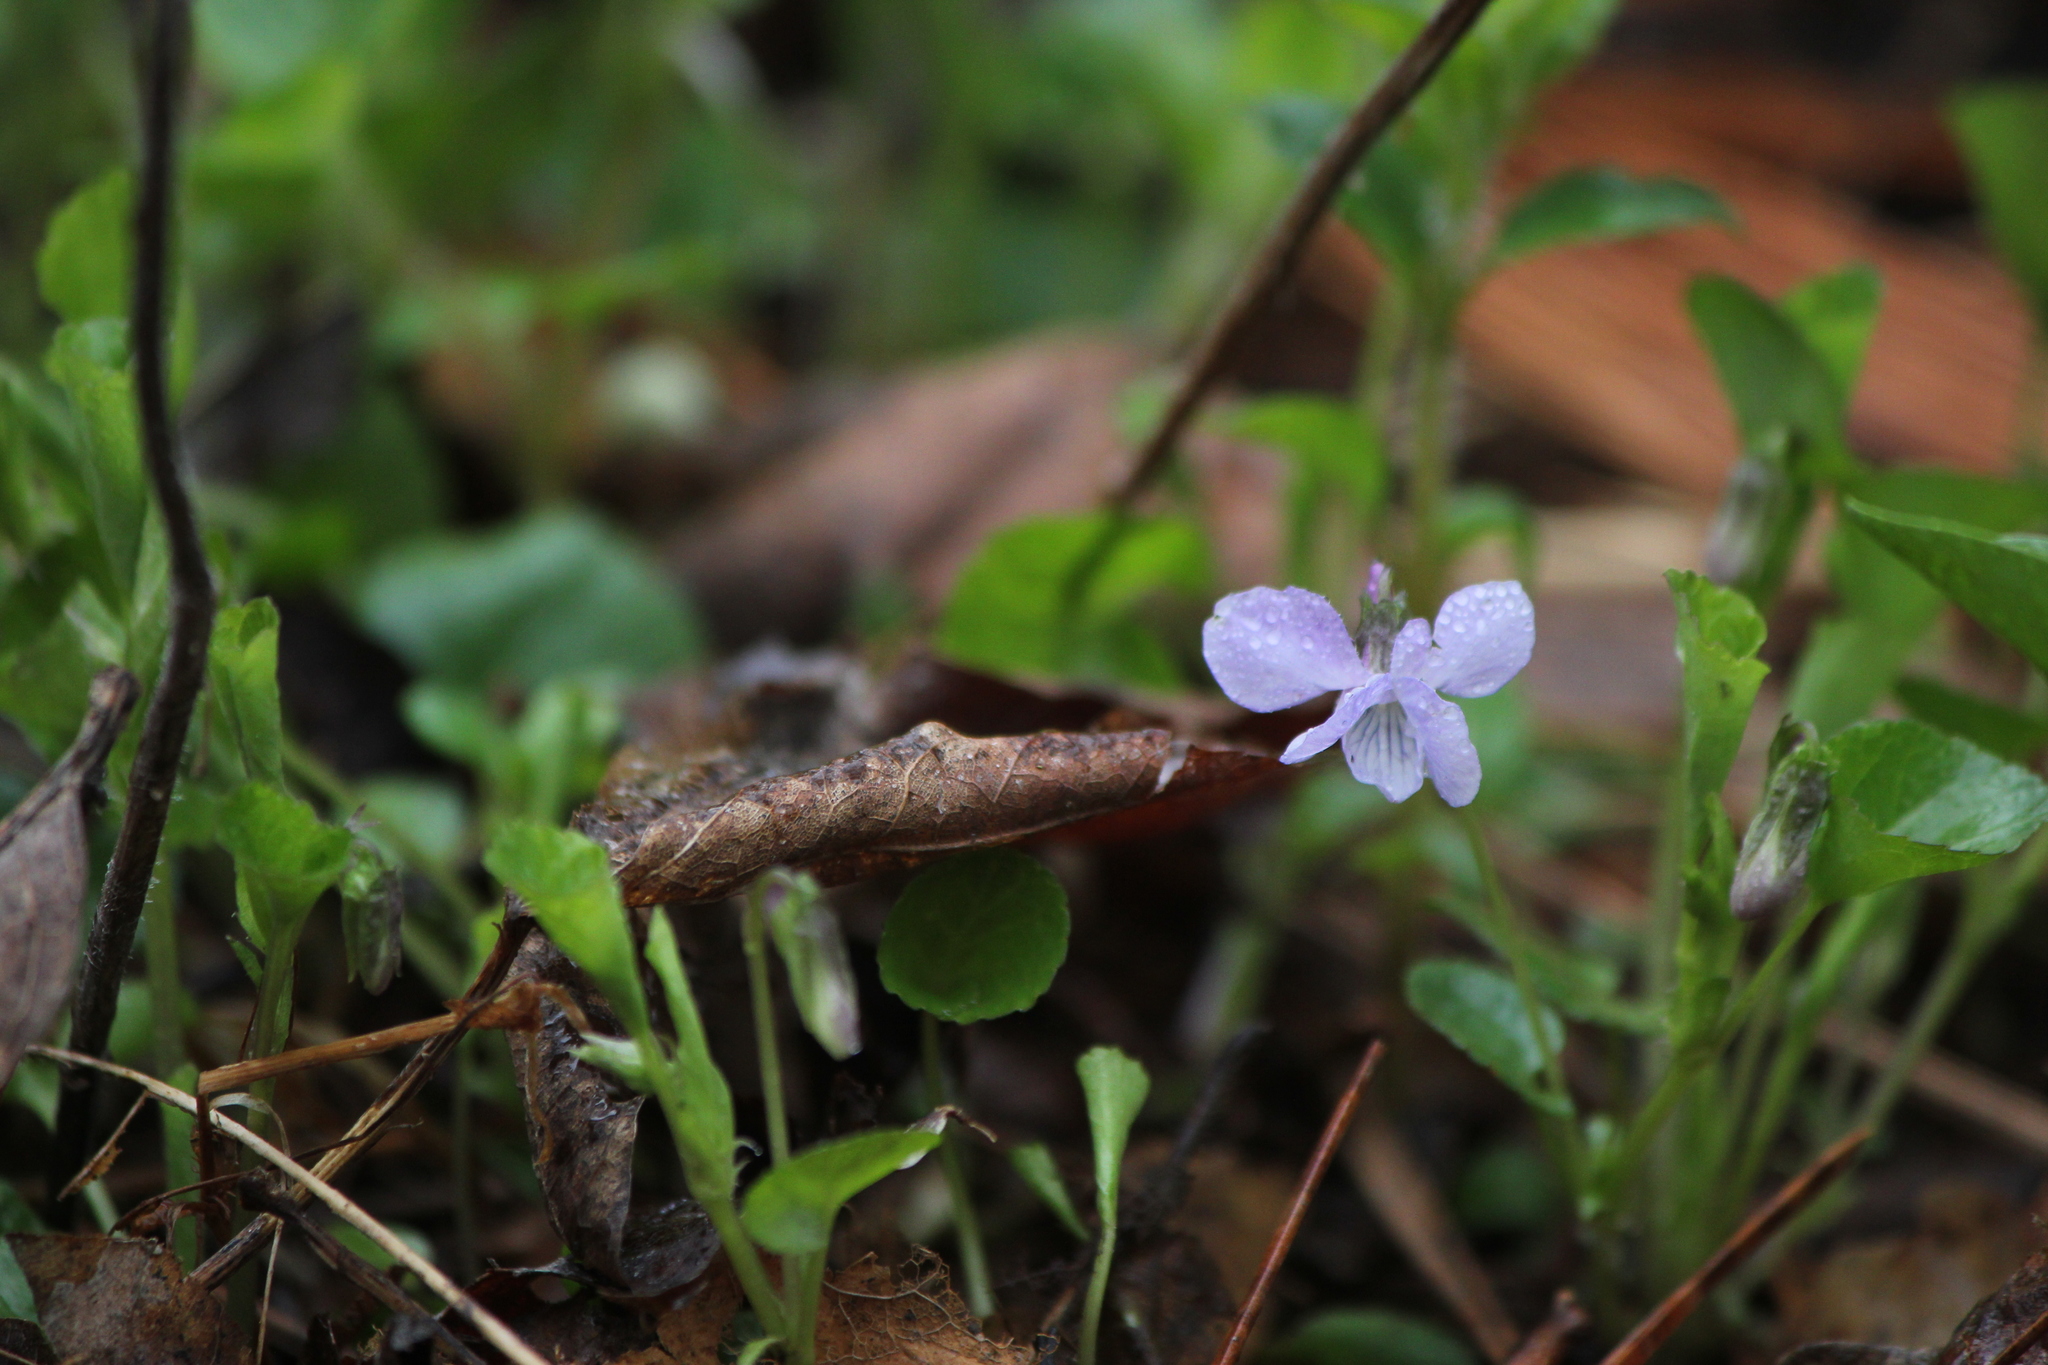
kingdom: Plantae
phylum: Tracheophyta
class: Magnoliopsida
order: Malpighiales
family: Violaceae
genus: Viola
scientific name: Viola labradorica
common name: Labrador violet
